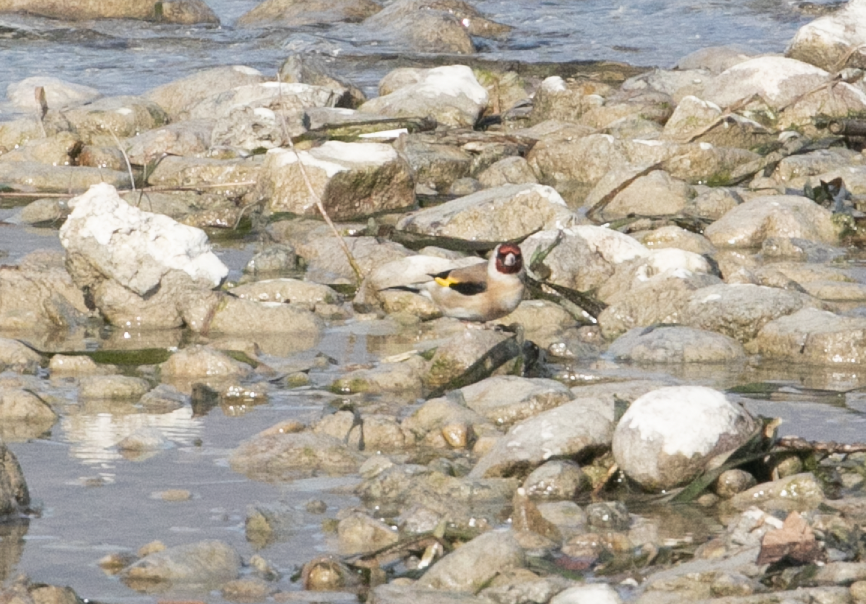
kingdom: Animalia
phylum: Chordata
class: Aves
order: Passeriformes
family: Fringillidae
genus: Carduelis
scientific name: Carduelis carduelis
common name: European goldfinch
